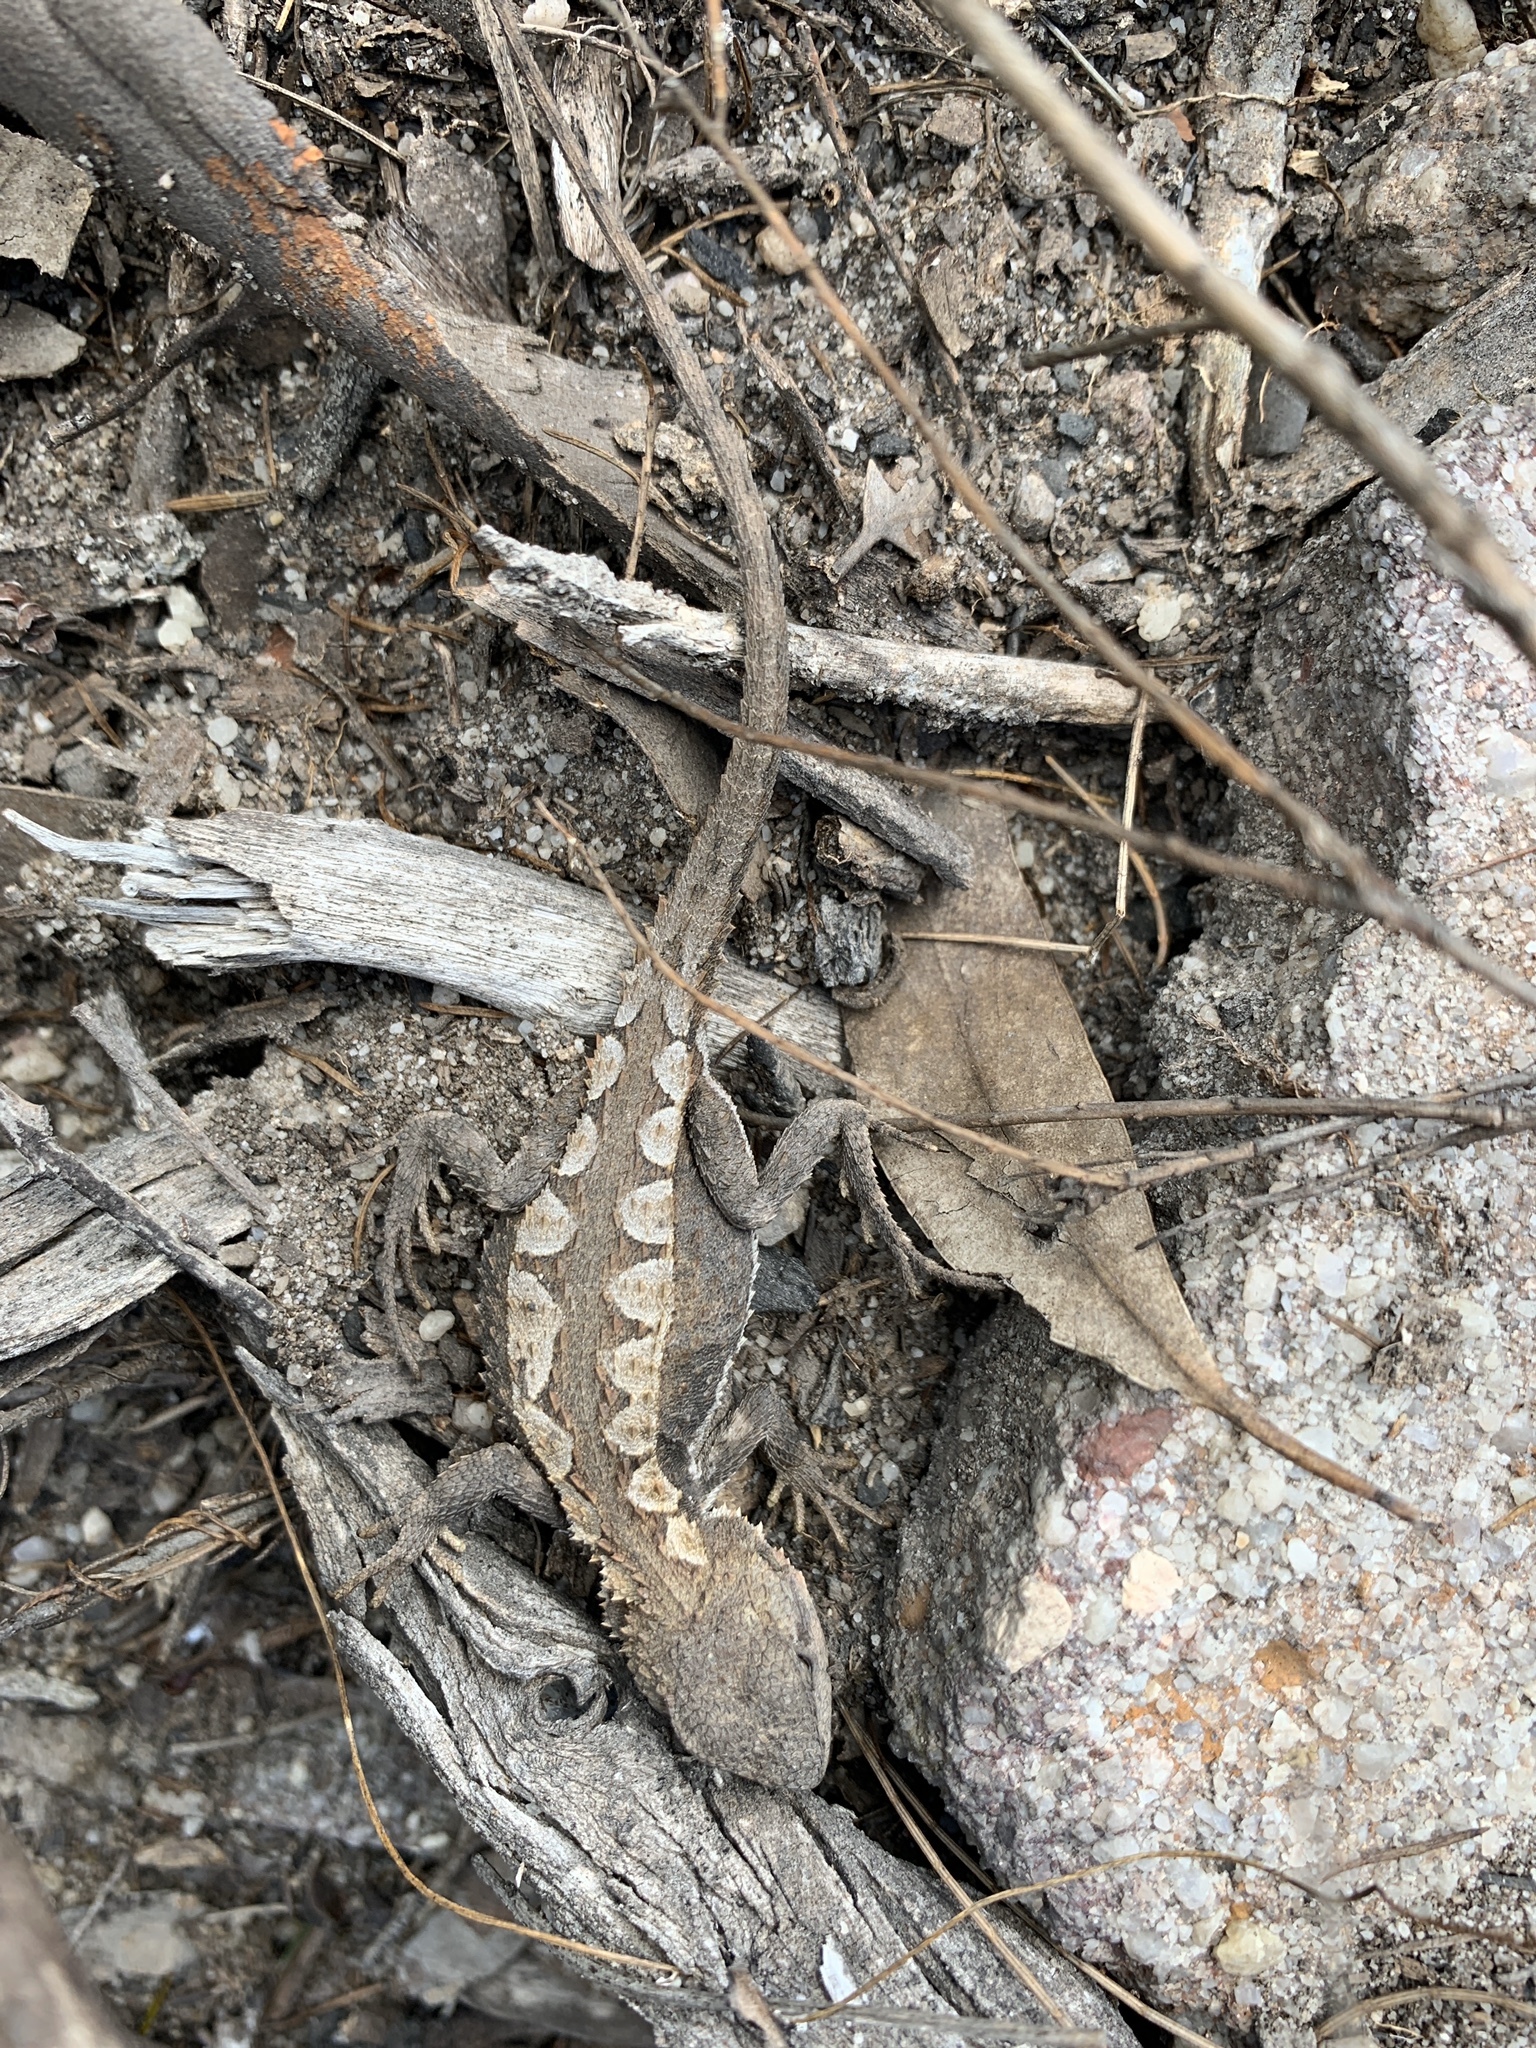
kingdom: Animalia
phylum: Chordata
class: Squamata
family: Agamidae
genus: Rankinia
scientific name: Rankinia diemensis
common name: Mountain dragon
